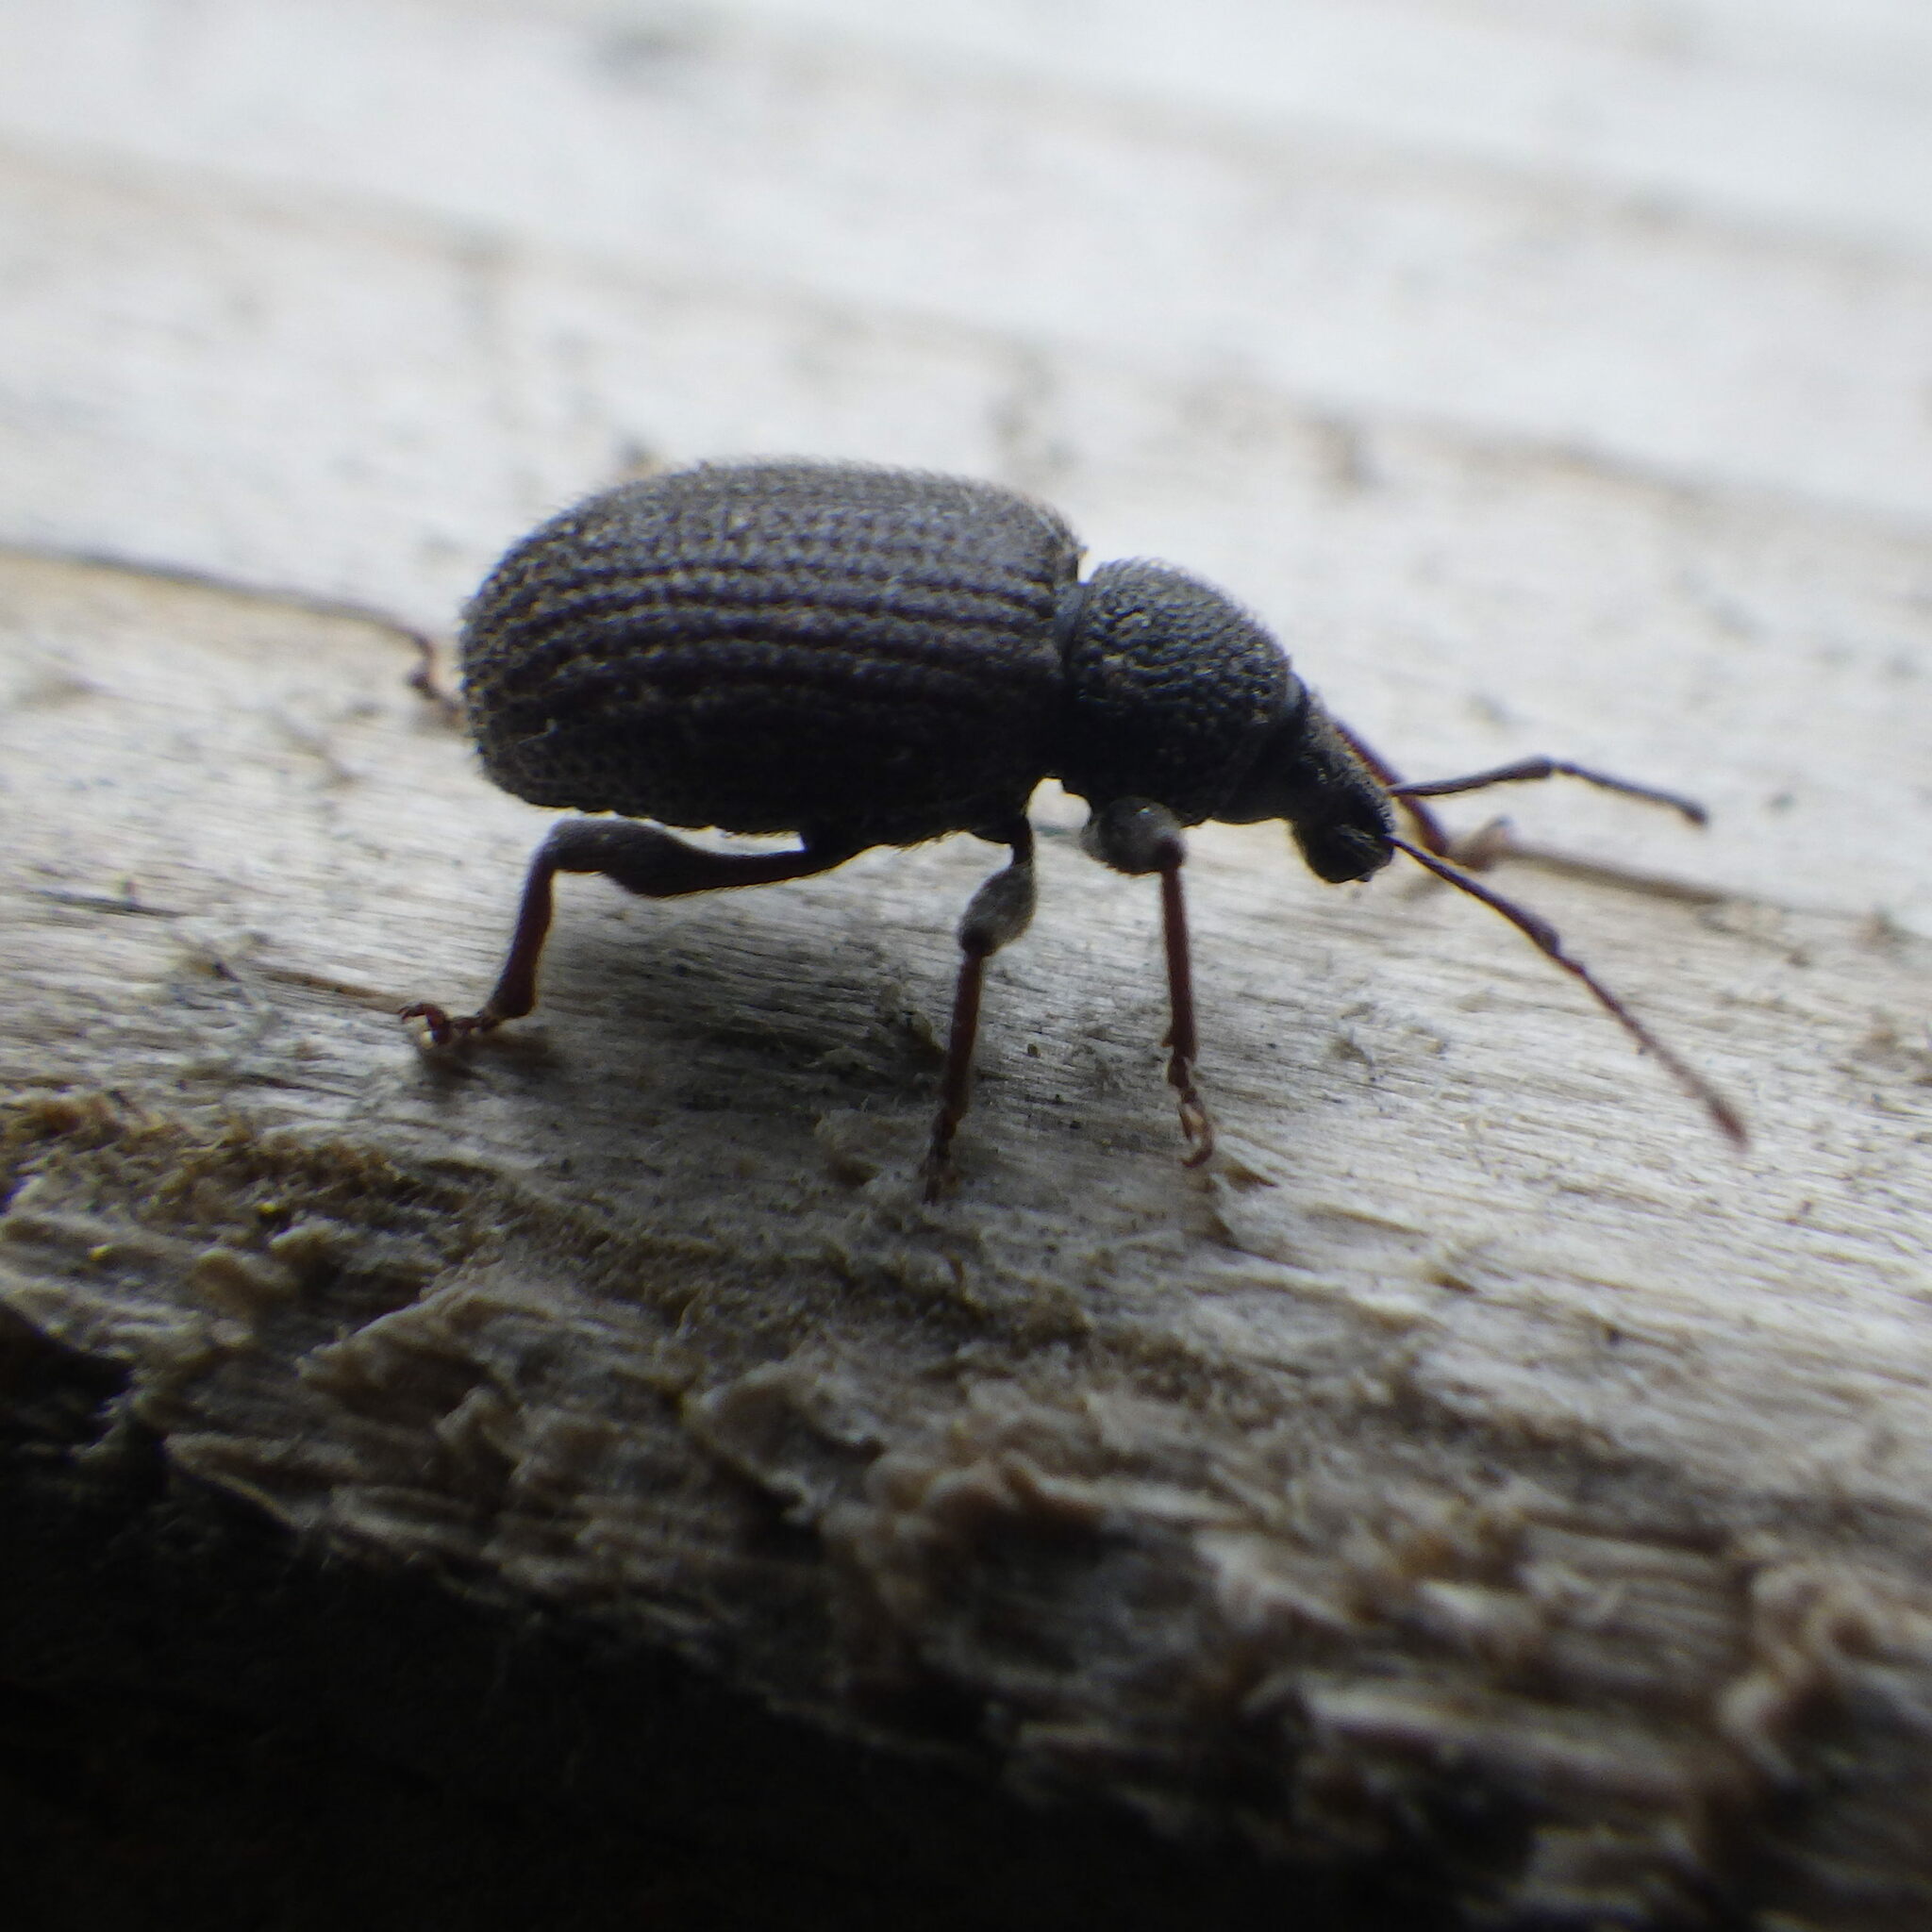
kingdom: Animalia
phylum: Arthropoda
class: Insecta
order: Coleoptera
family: Curculionidae
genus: Otiorhynchus
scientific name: Otiorhynchus rugosostriatus
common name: Weevil
